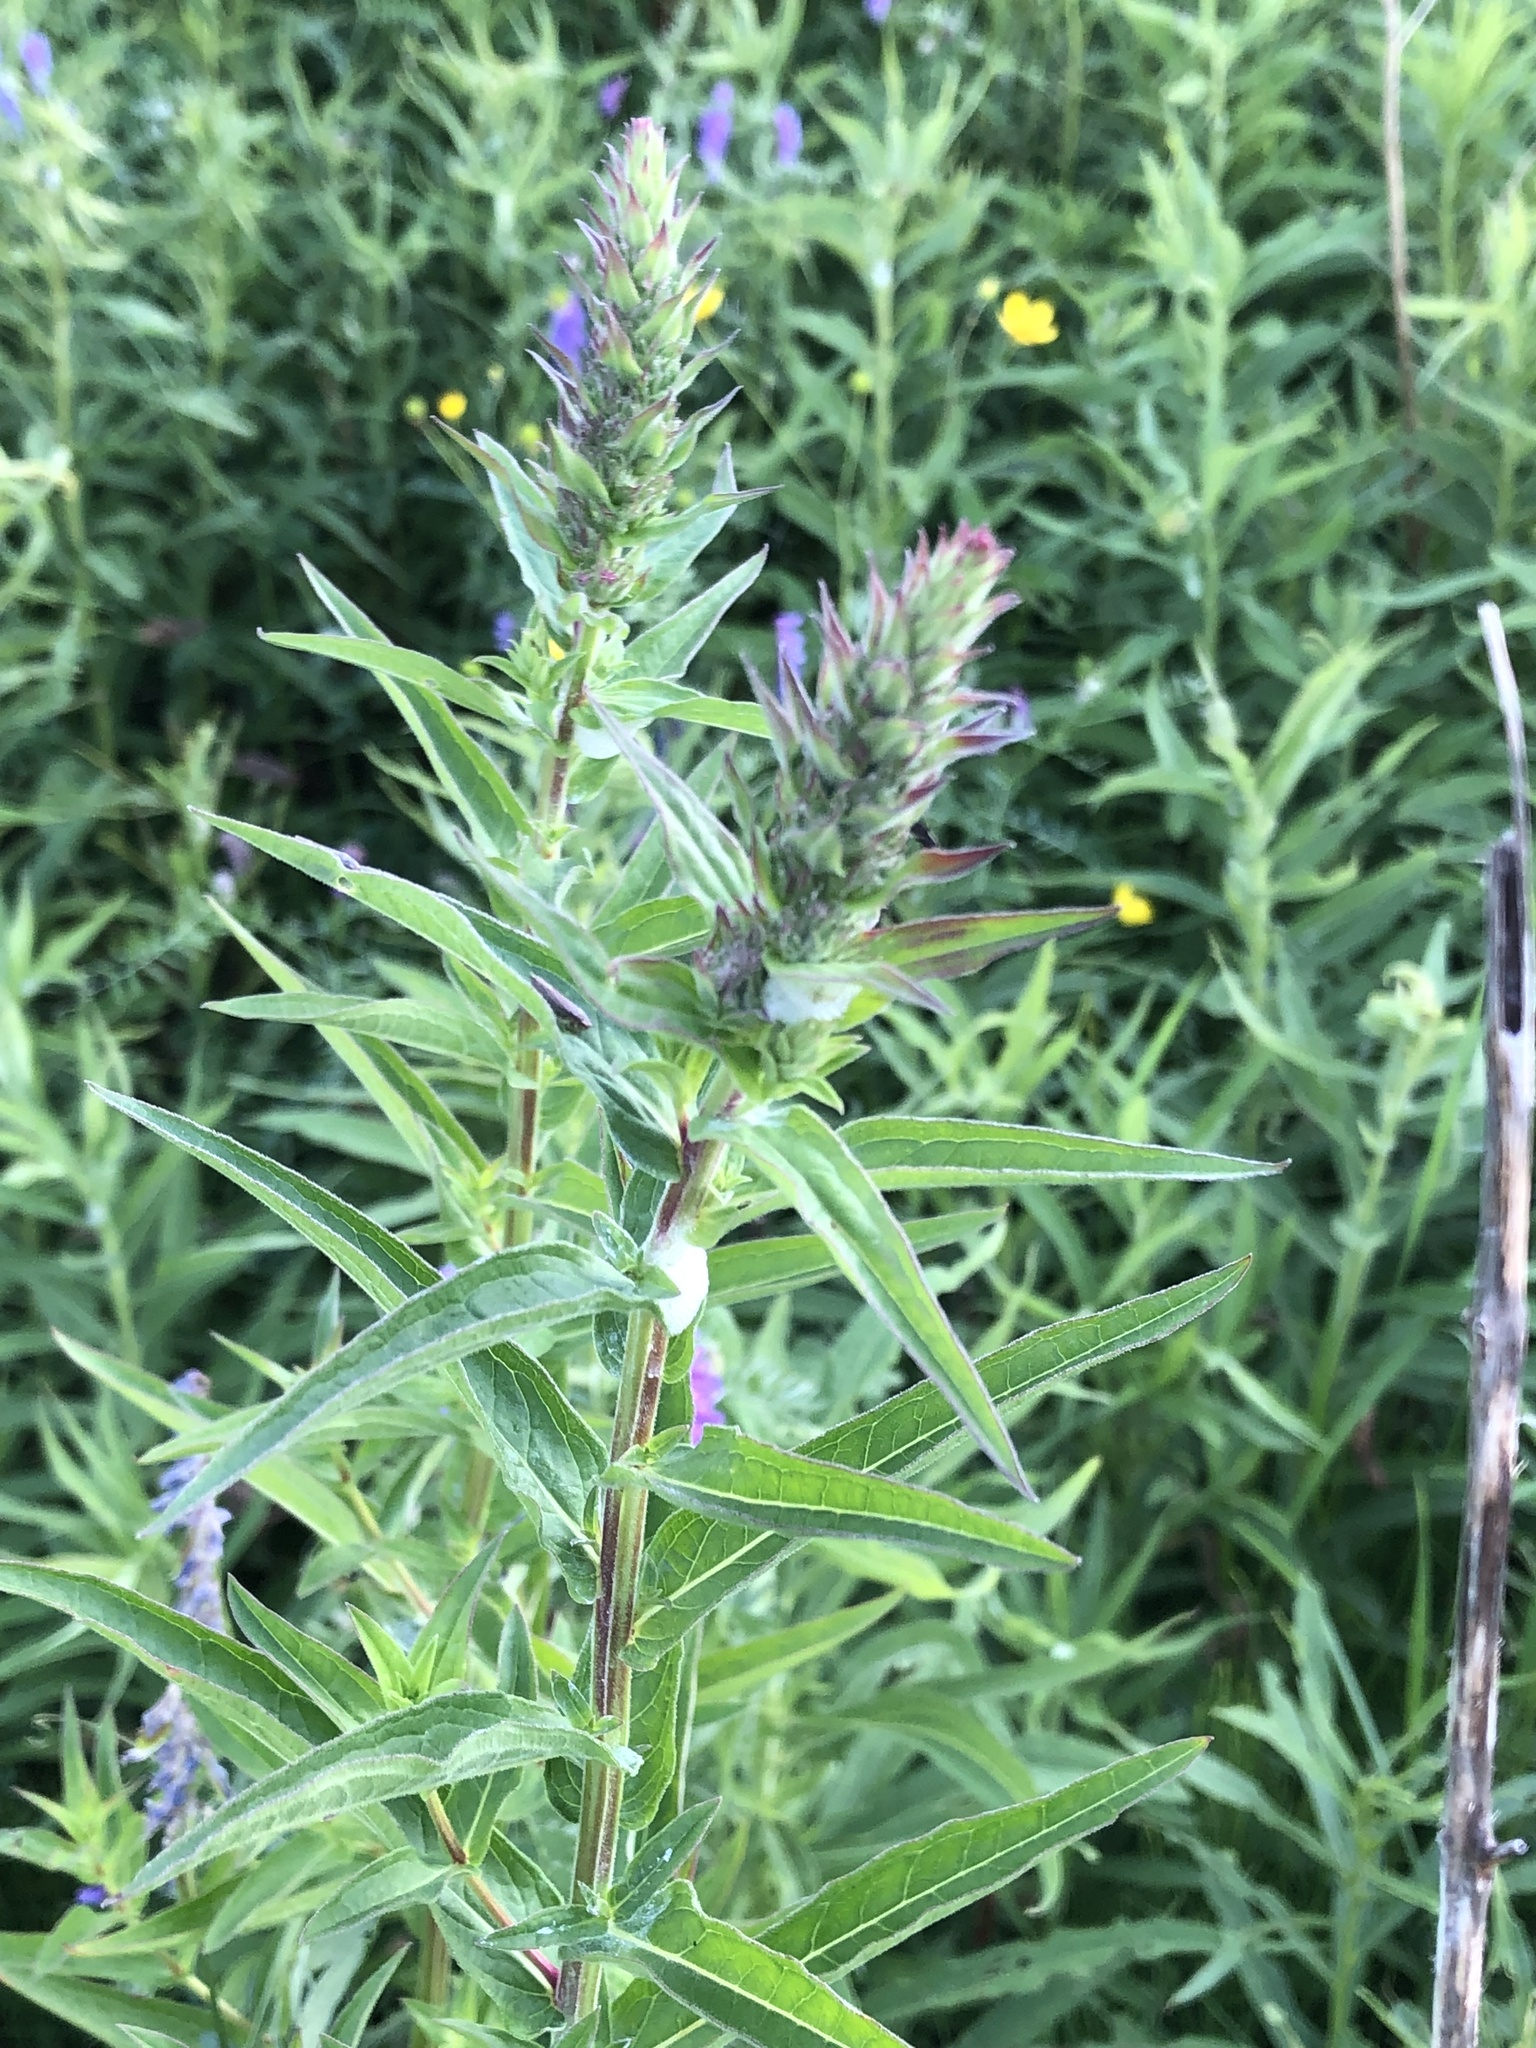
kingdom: Plantae
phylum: Tracheophyta
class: Magnoliopsida
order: Myrtales
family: Lythraceae
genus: Lythrum
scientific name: Lythrum salicaria
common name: Purple loosestrife
